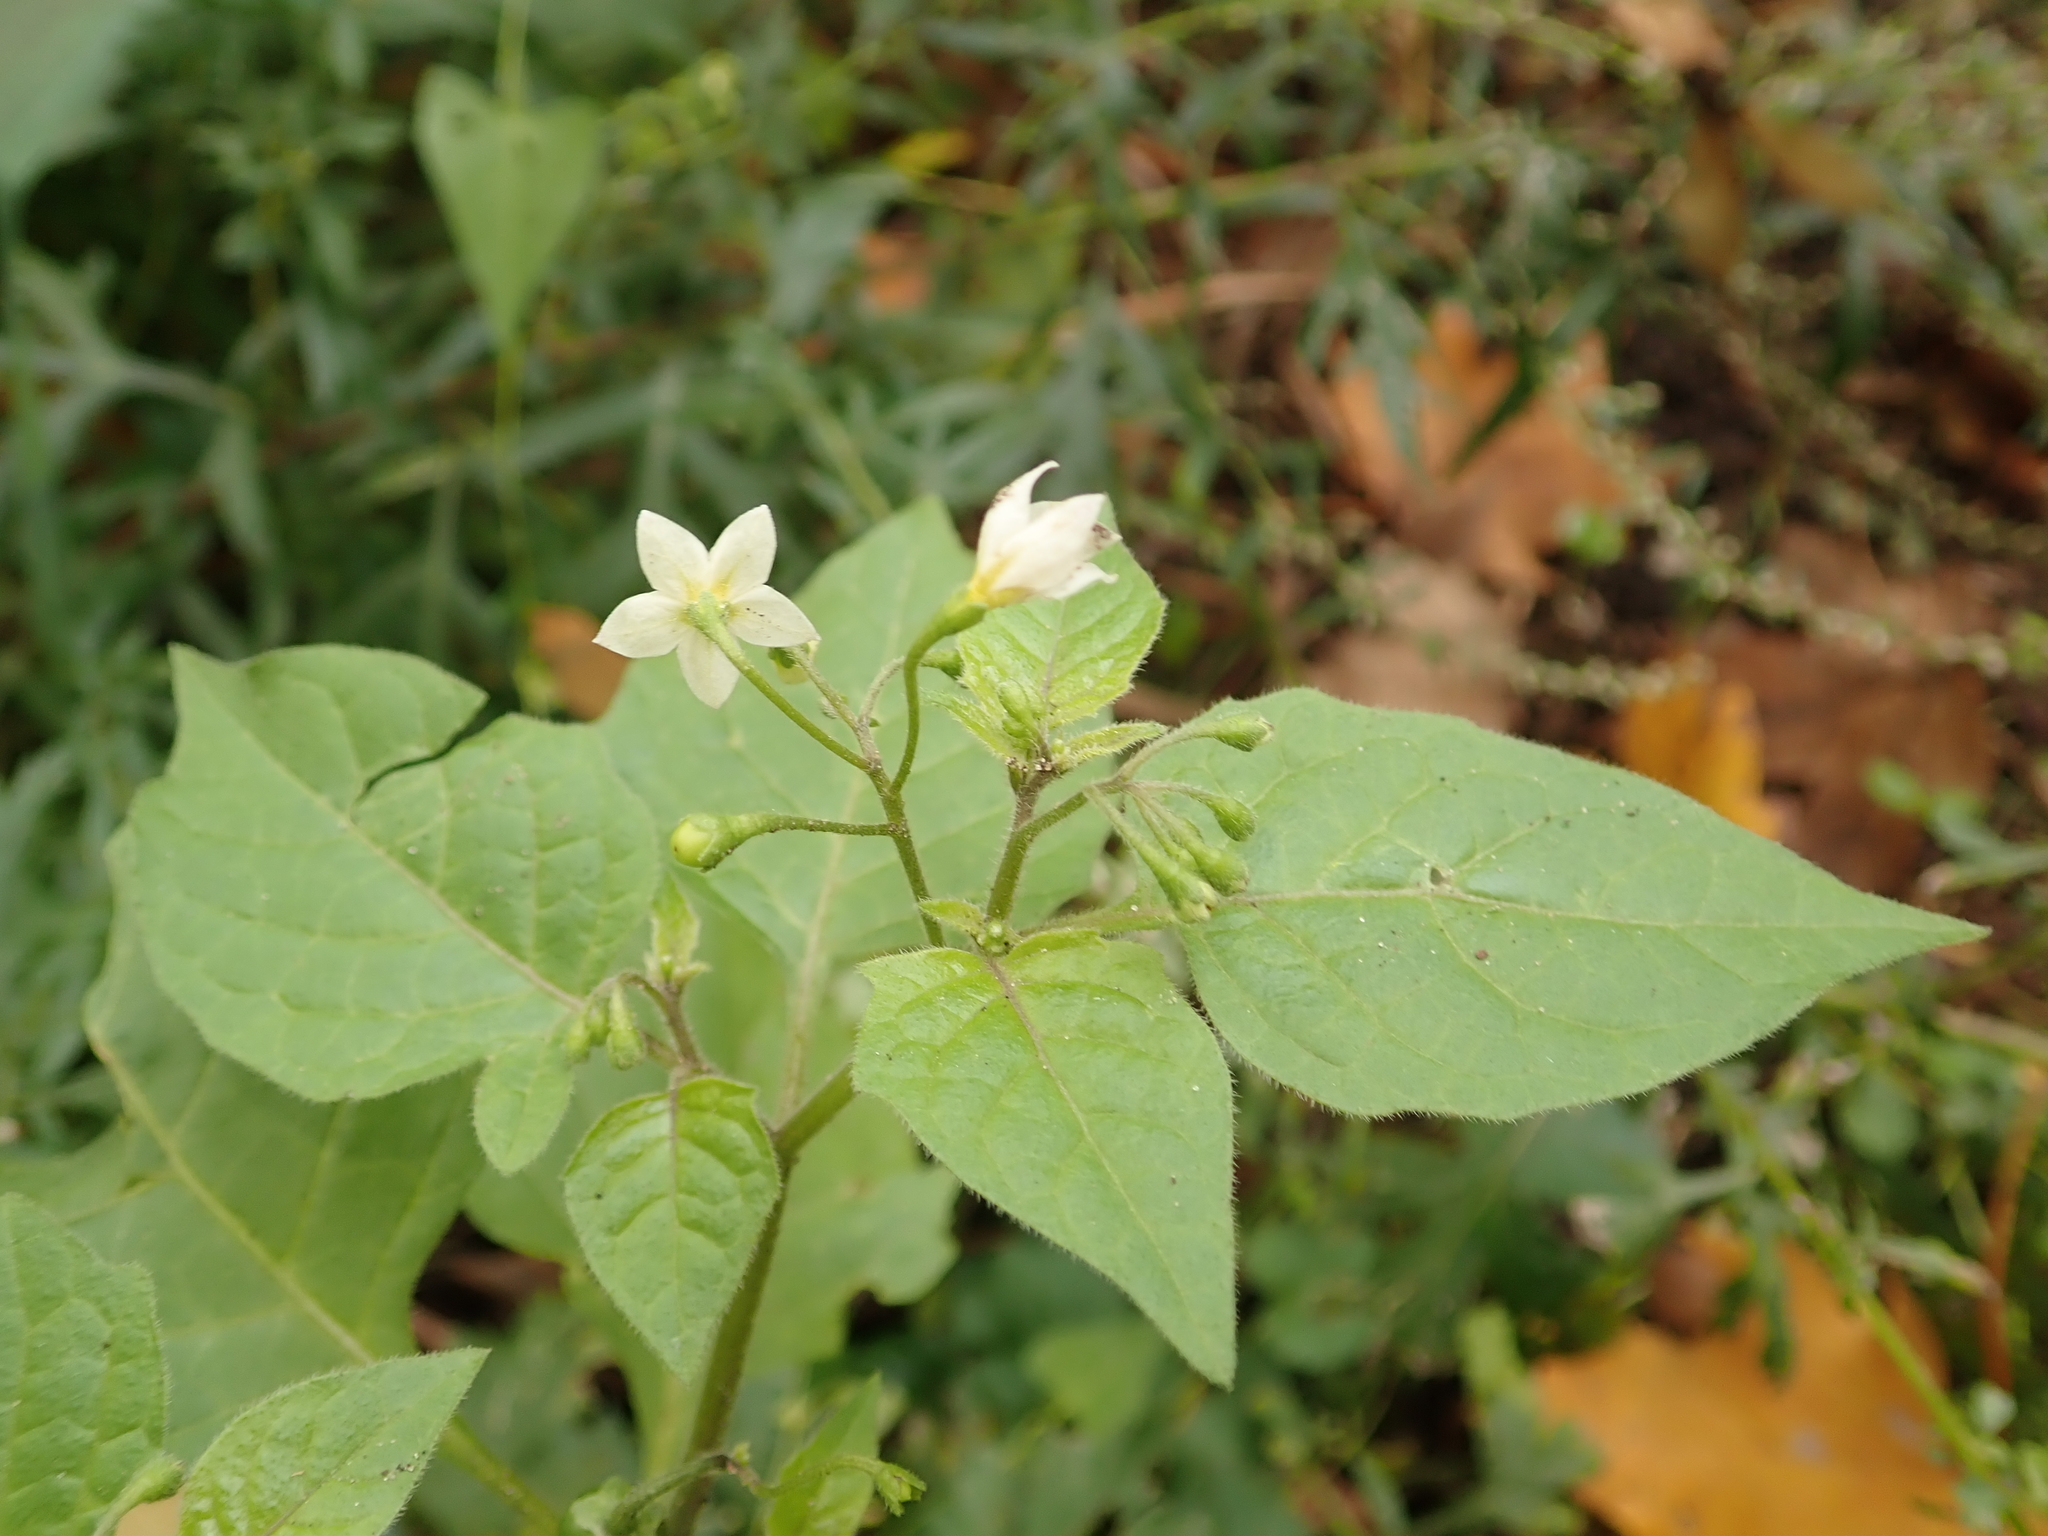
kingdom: Plantae
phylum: Tracheophyta
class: Magnoliopsida
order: Solanales
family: Solanaceae
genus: Solanum
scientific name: Solanum nigrum
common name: Black nightshade
